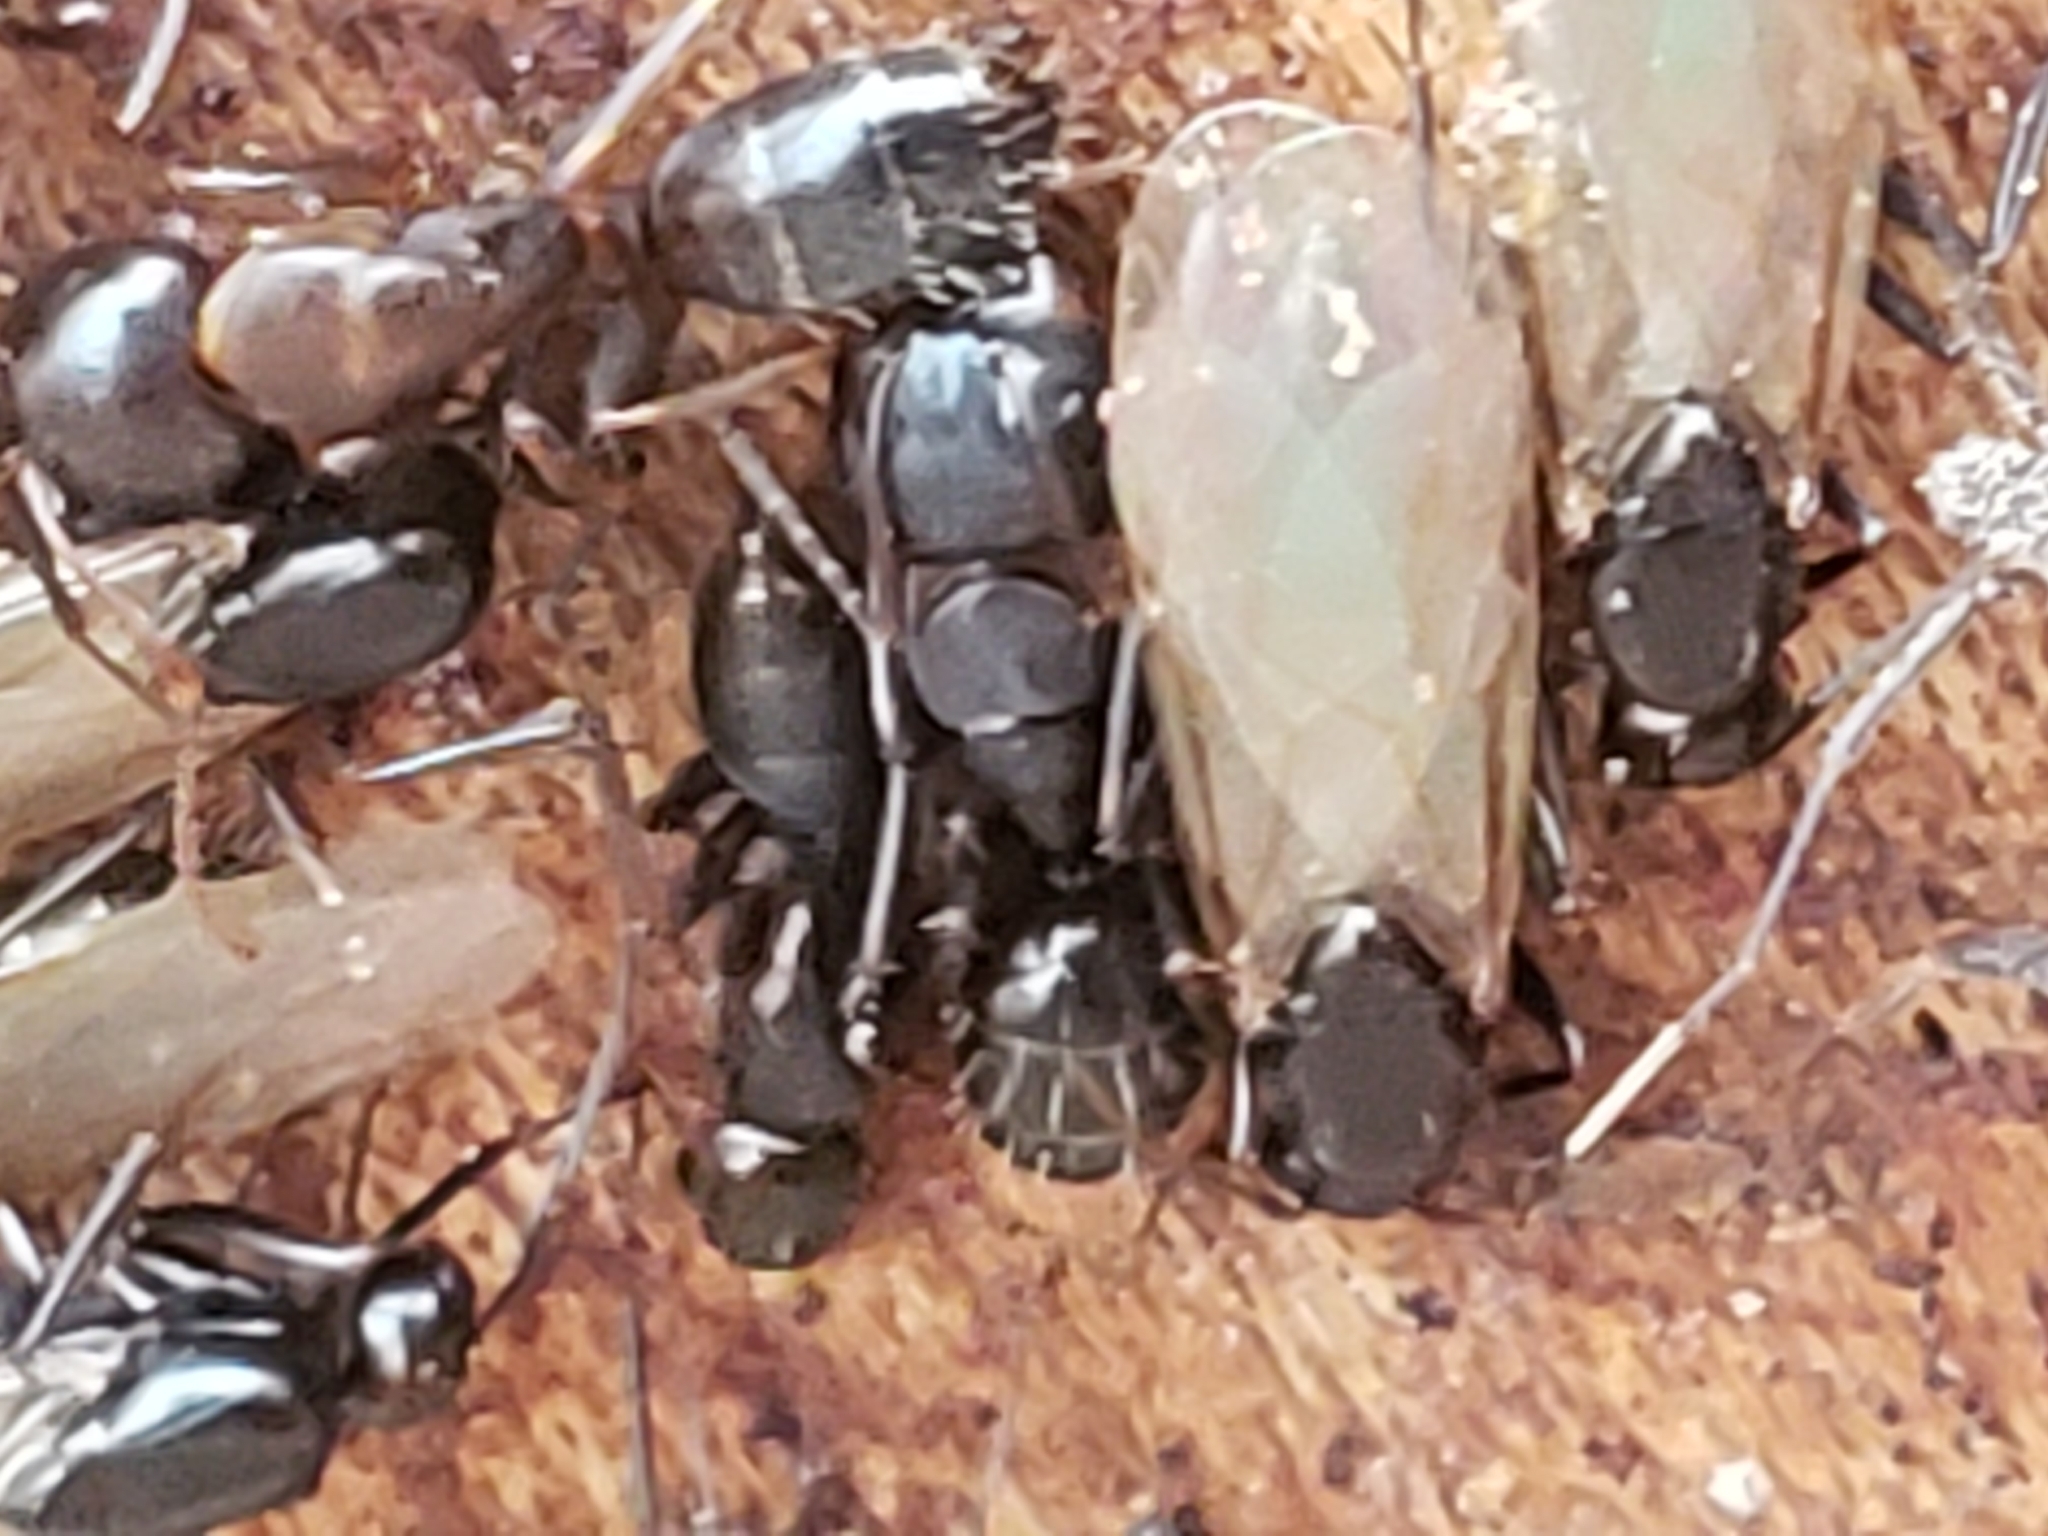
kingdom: Animalia
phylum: Arthropoda
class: Insecta
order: Hymenoptera
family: Formicidae
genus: Camponotus
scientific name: Camponotus nearcticus
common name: Smaller carpenter ant
